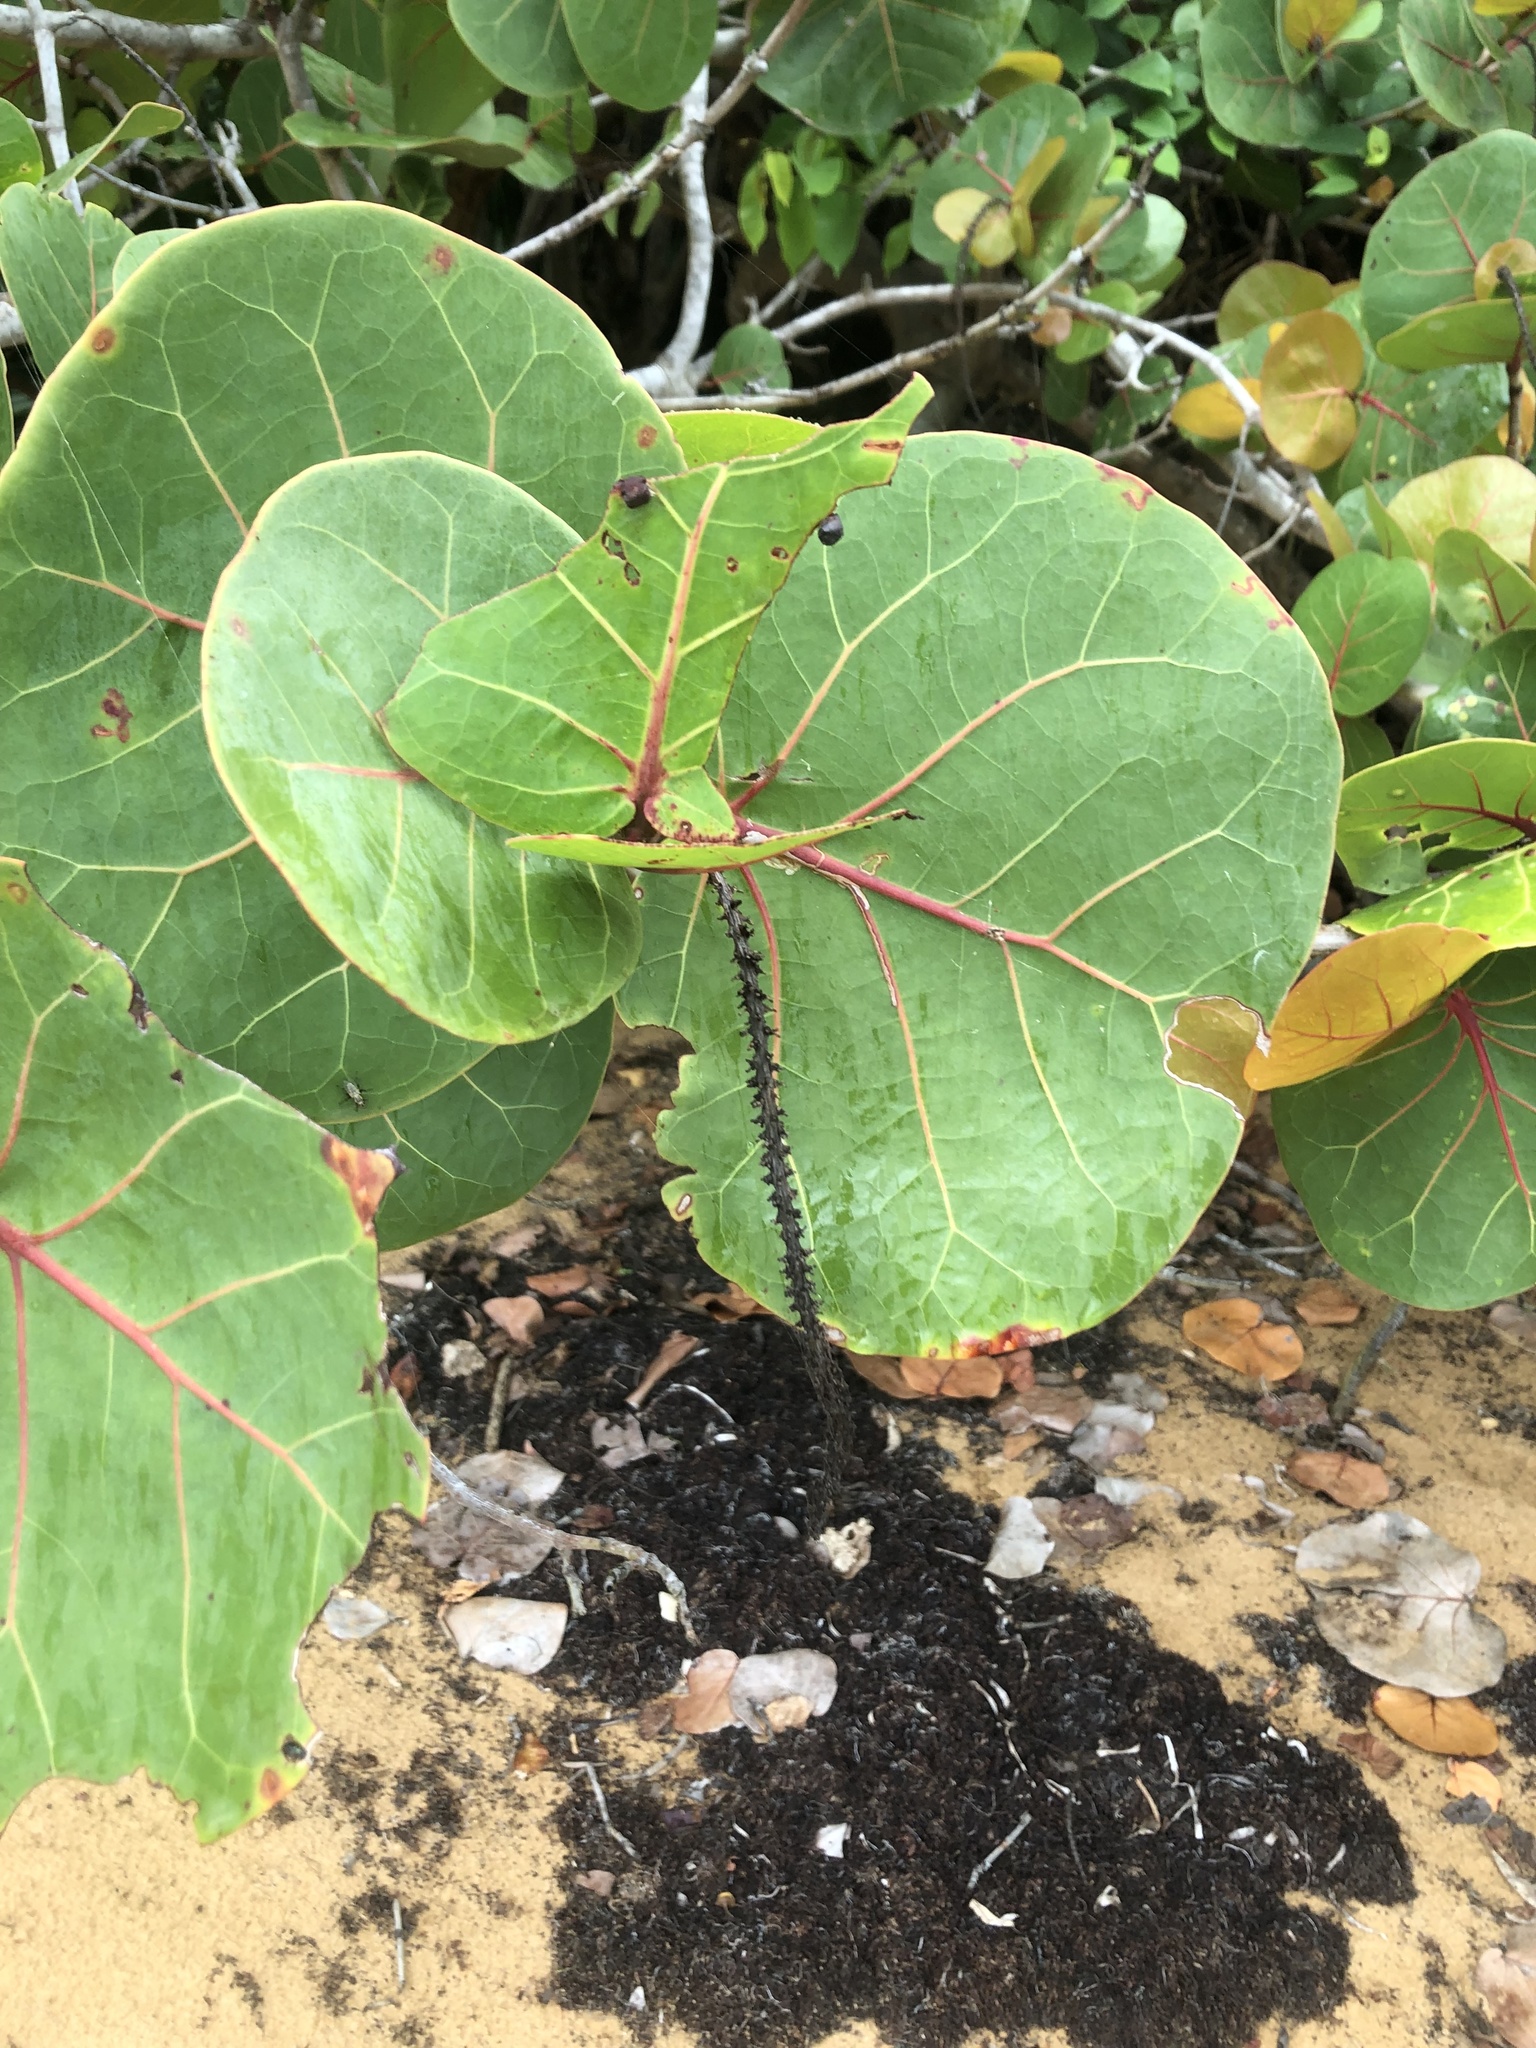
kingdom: Plantae
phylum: Tracheophyta
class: Magnoliopsida
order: Caryophyllales
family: Polygonaceae
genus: Coccoloba
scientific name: Coccoloba uvifera
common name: Seagrape
